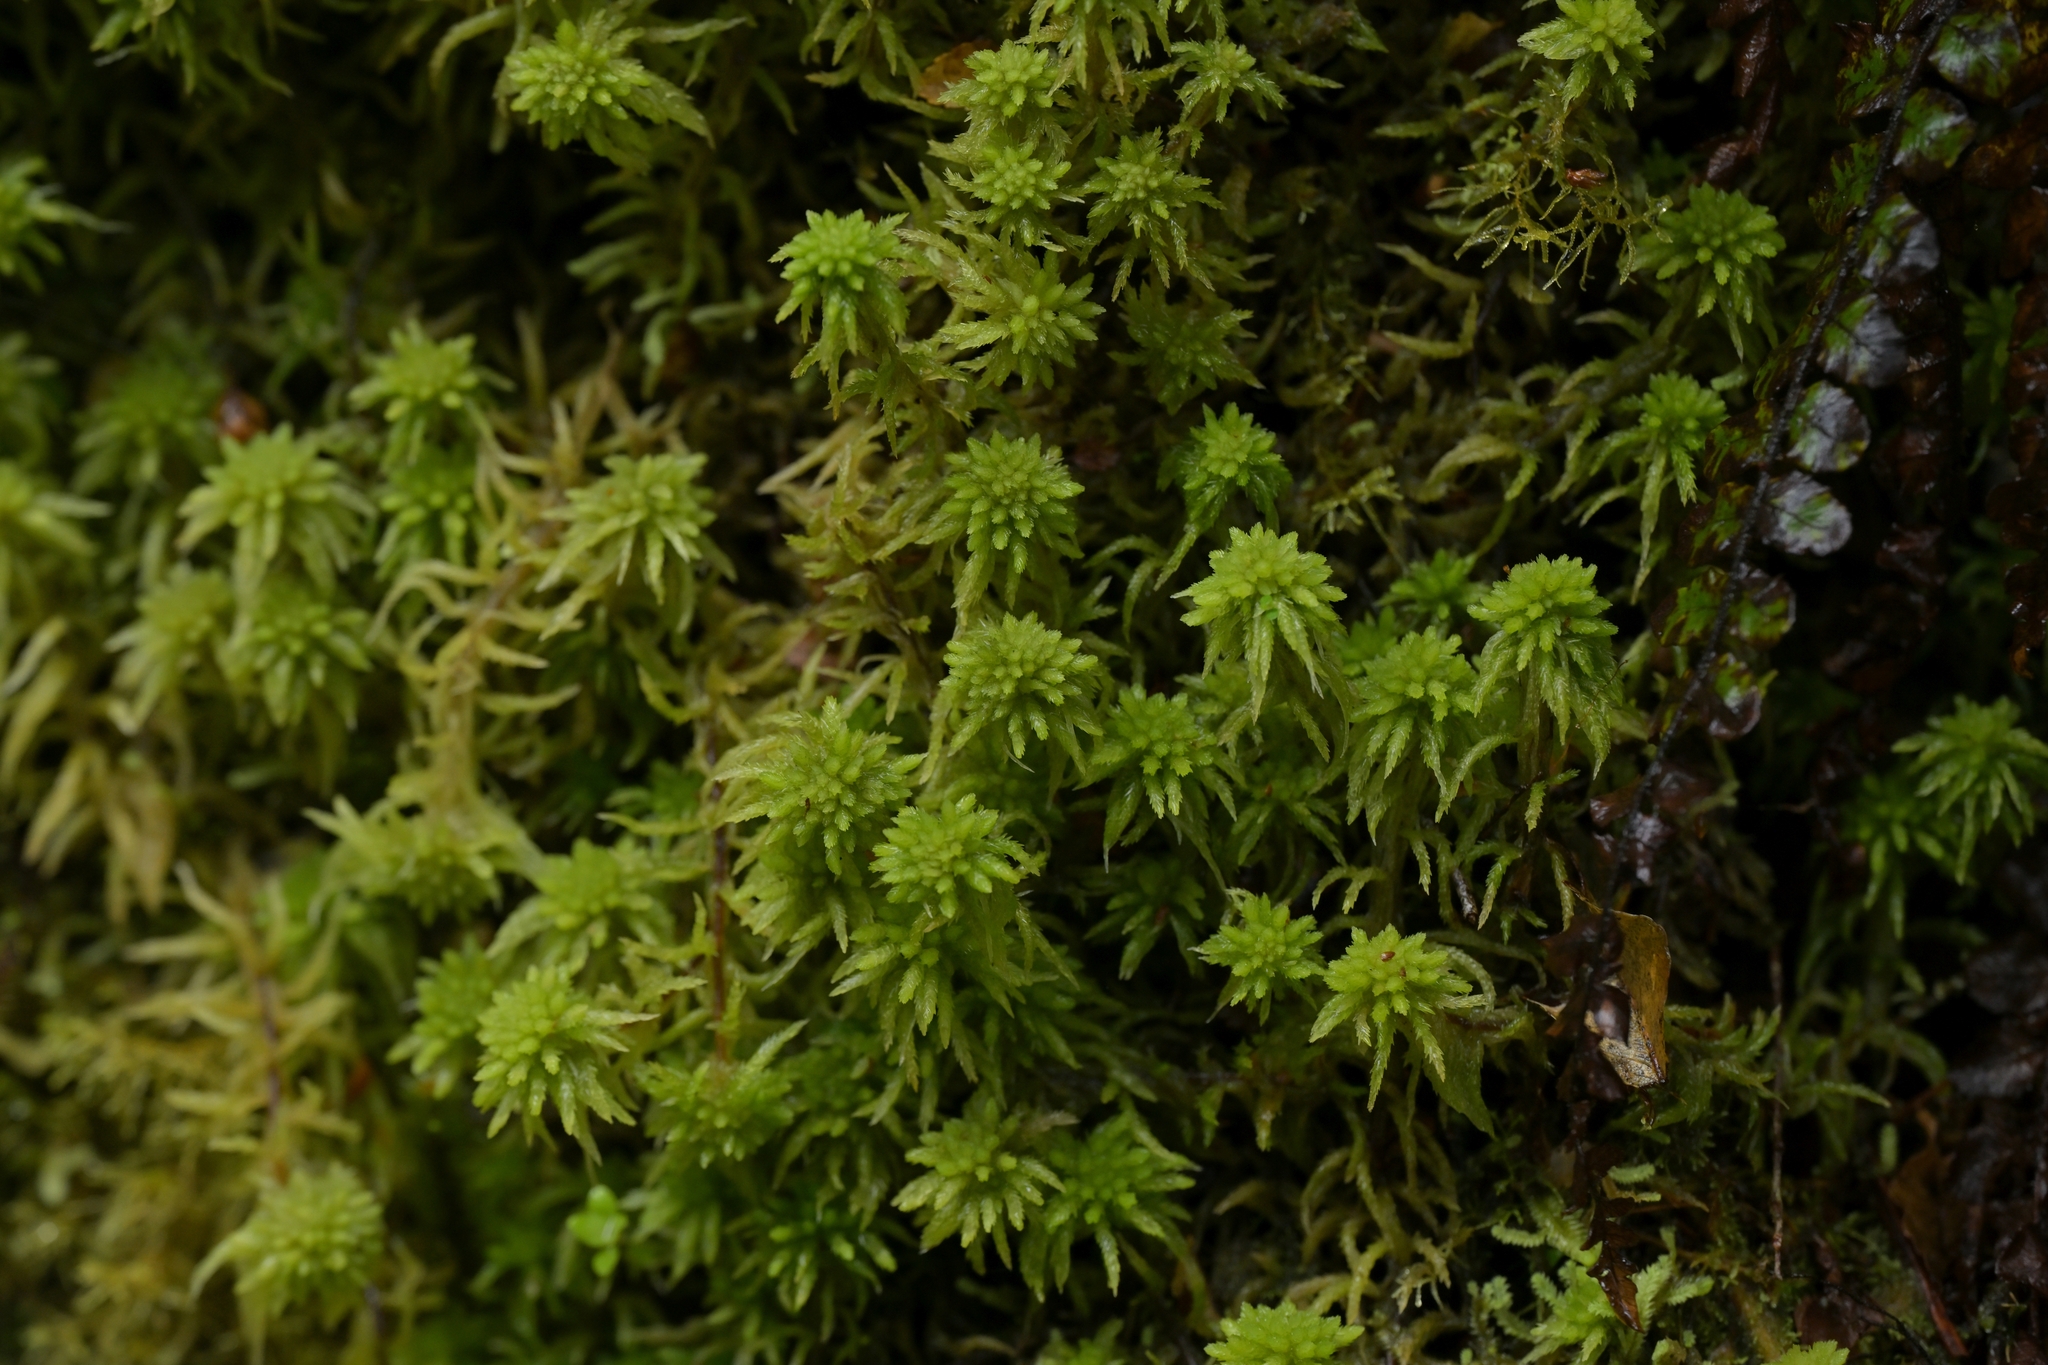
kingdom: Plantae
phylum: Bryophyta
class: Sphagnopsida
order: Sphagnales
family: Sphagnaceae
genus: Sphagnum
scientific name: Sphagnum cristatum
